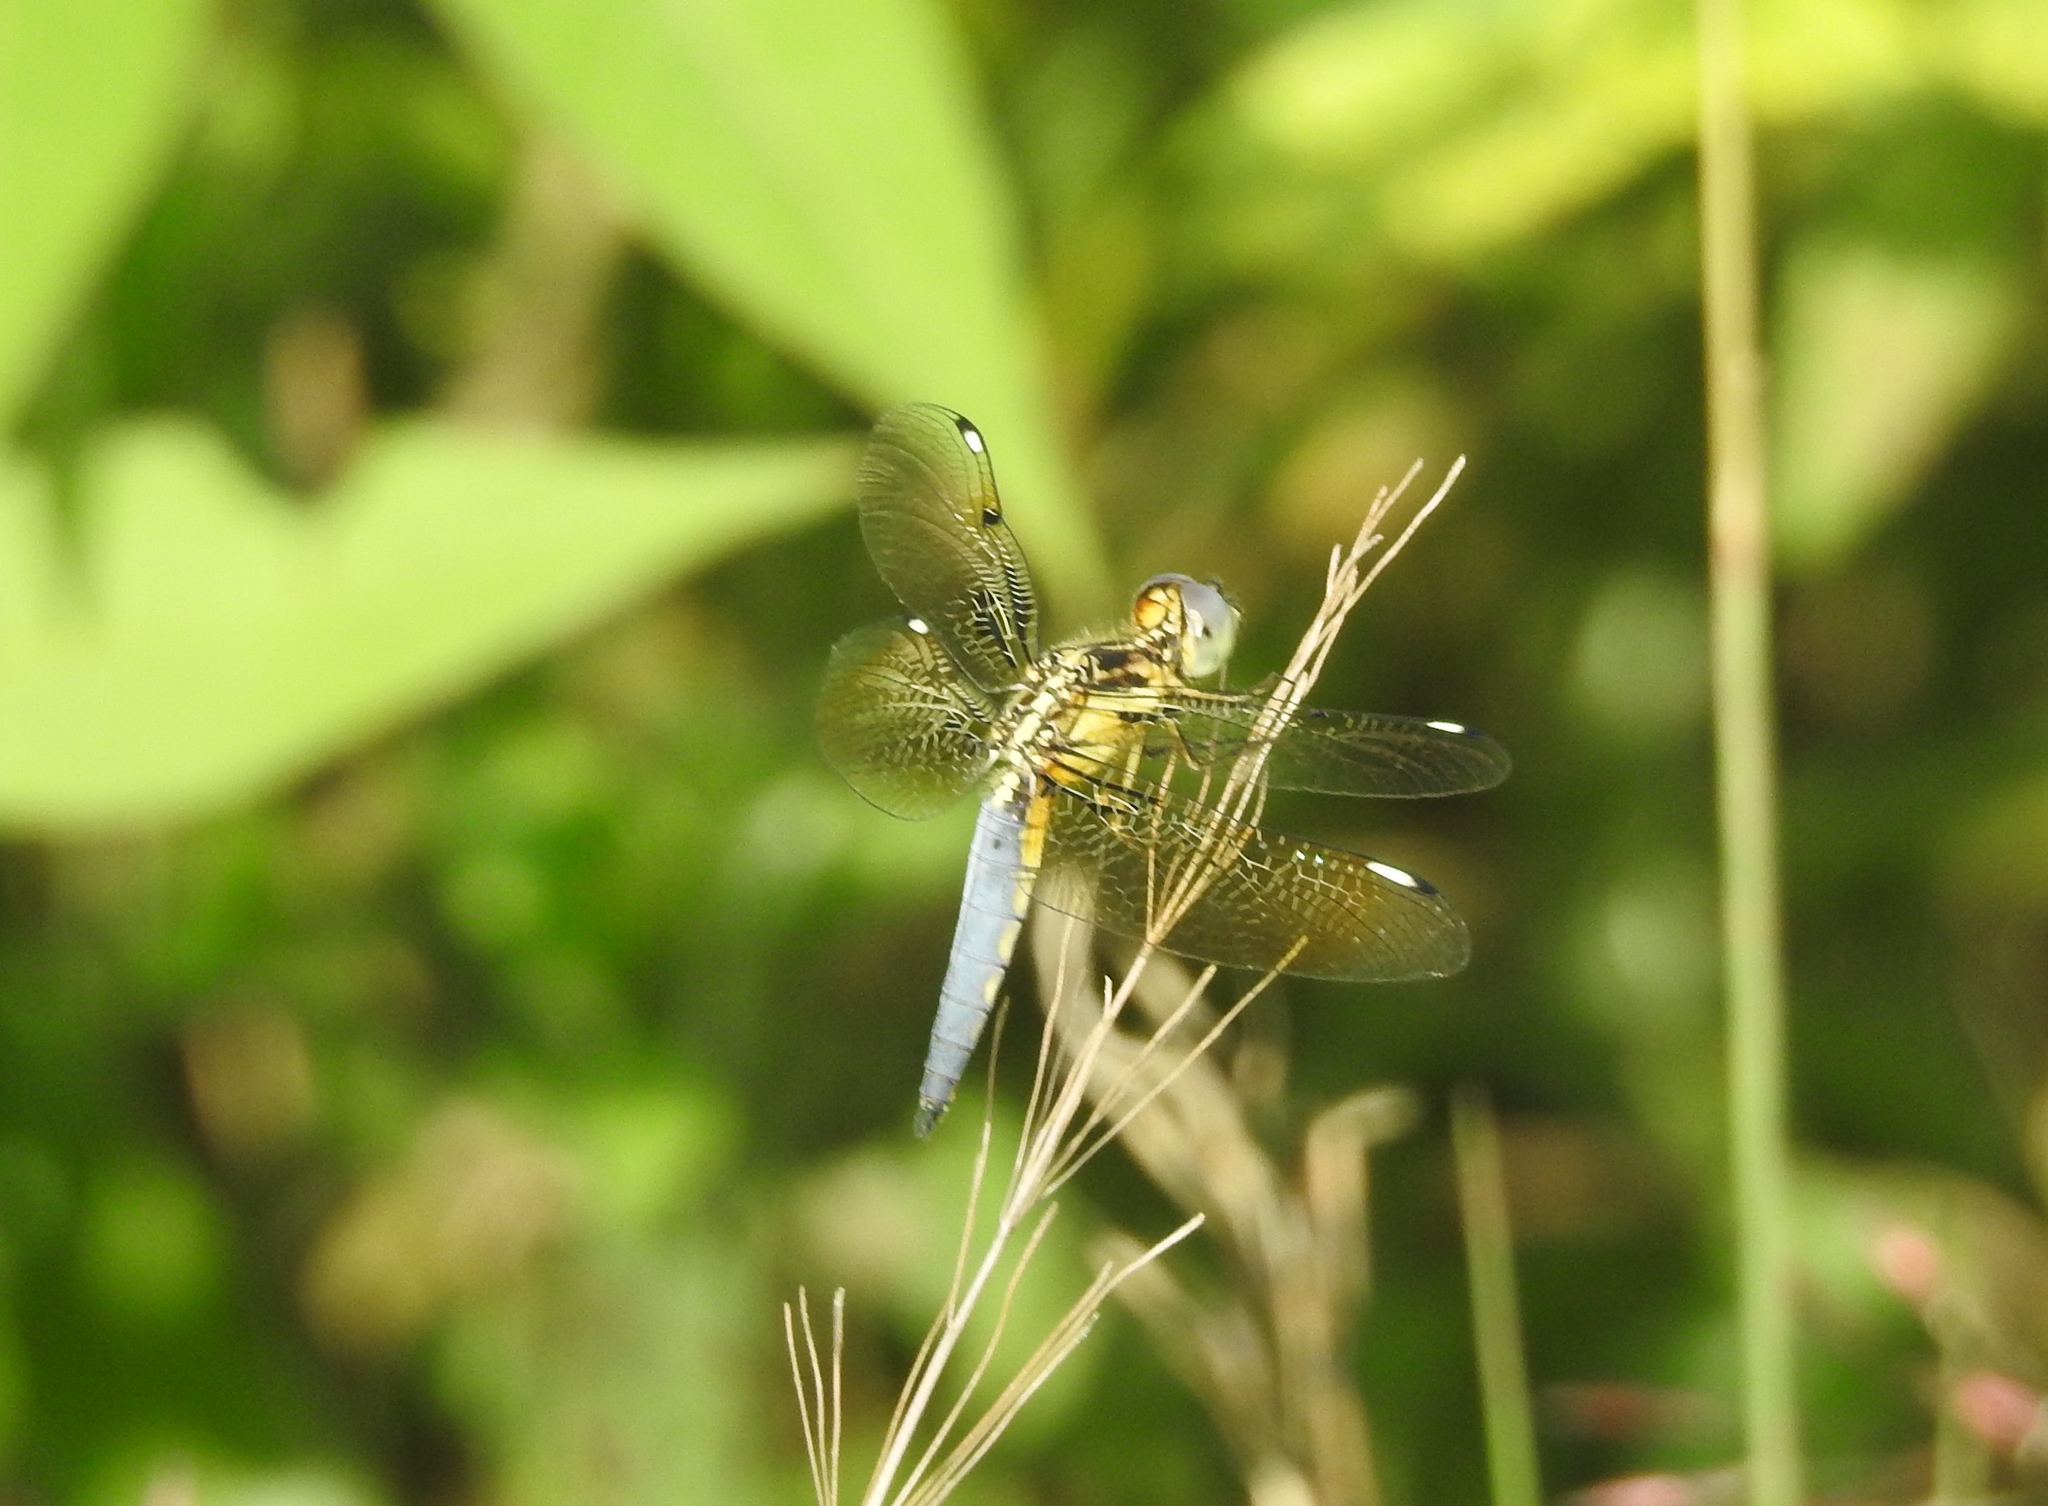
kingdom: Animalia
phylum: Arthropoda
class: Insecta
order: Odonata
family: Libellulidae
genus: Palpopleura
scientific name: Palpopleura sexmaculata
